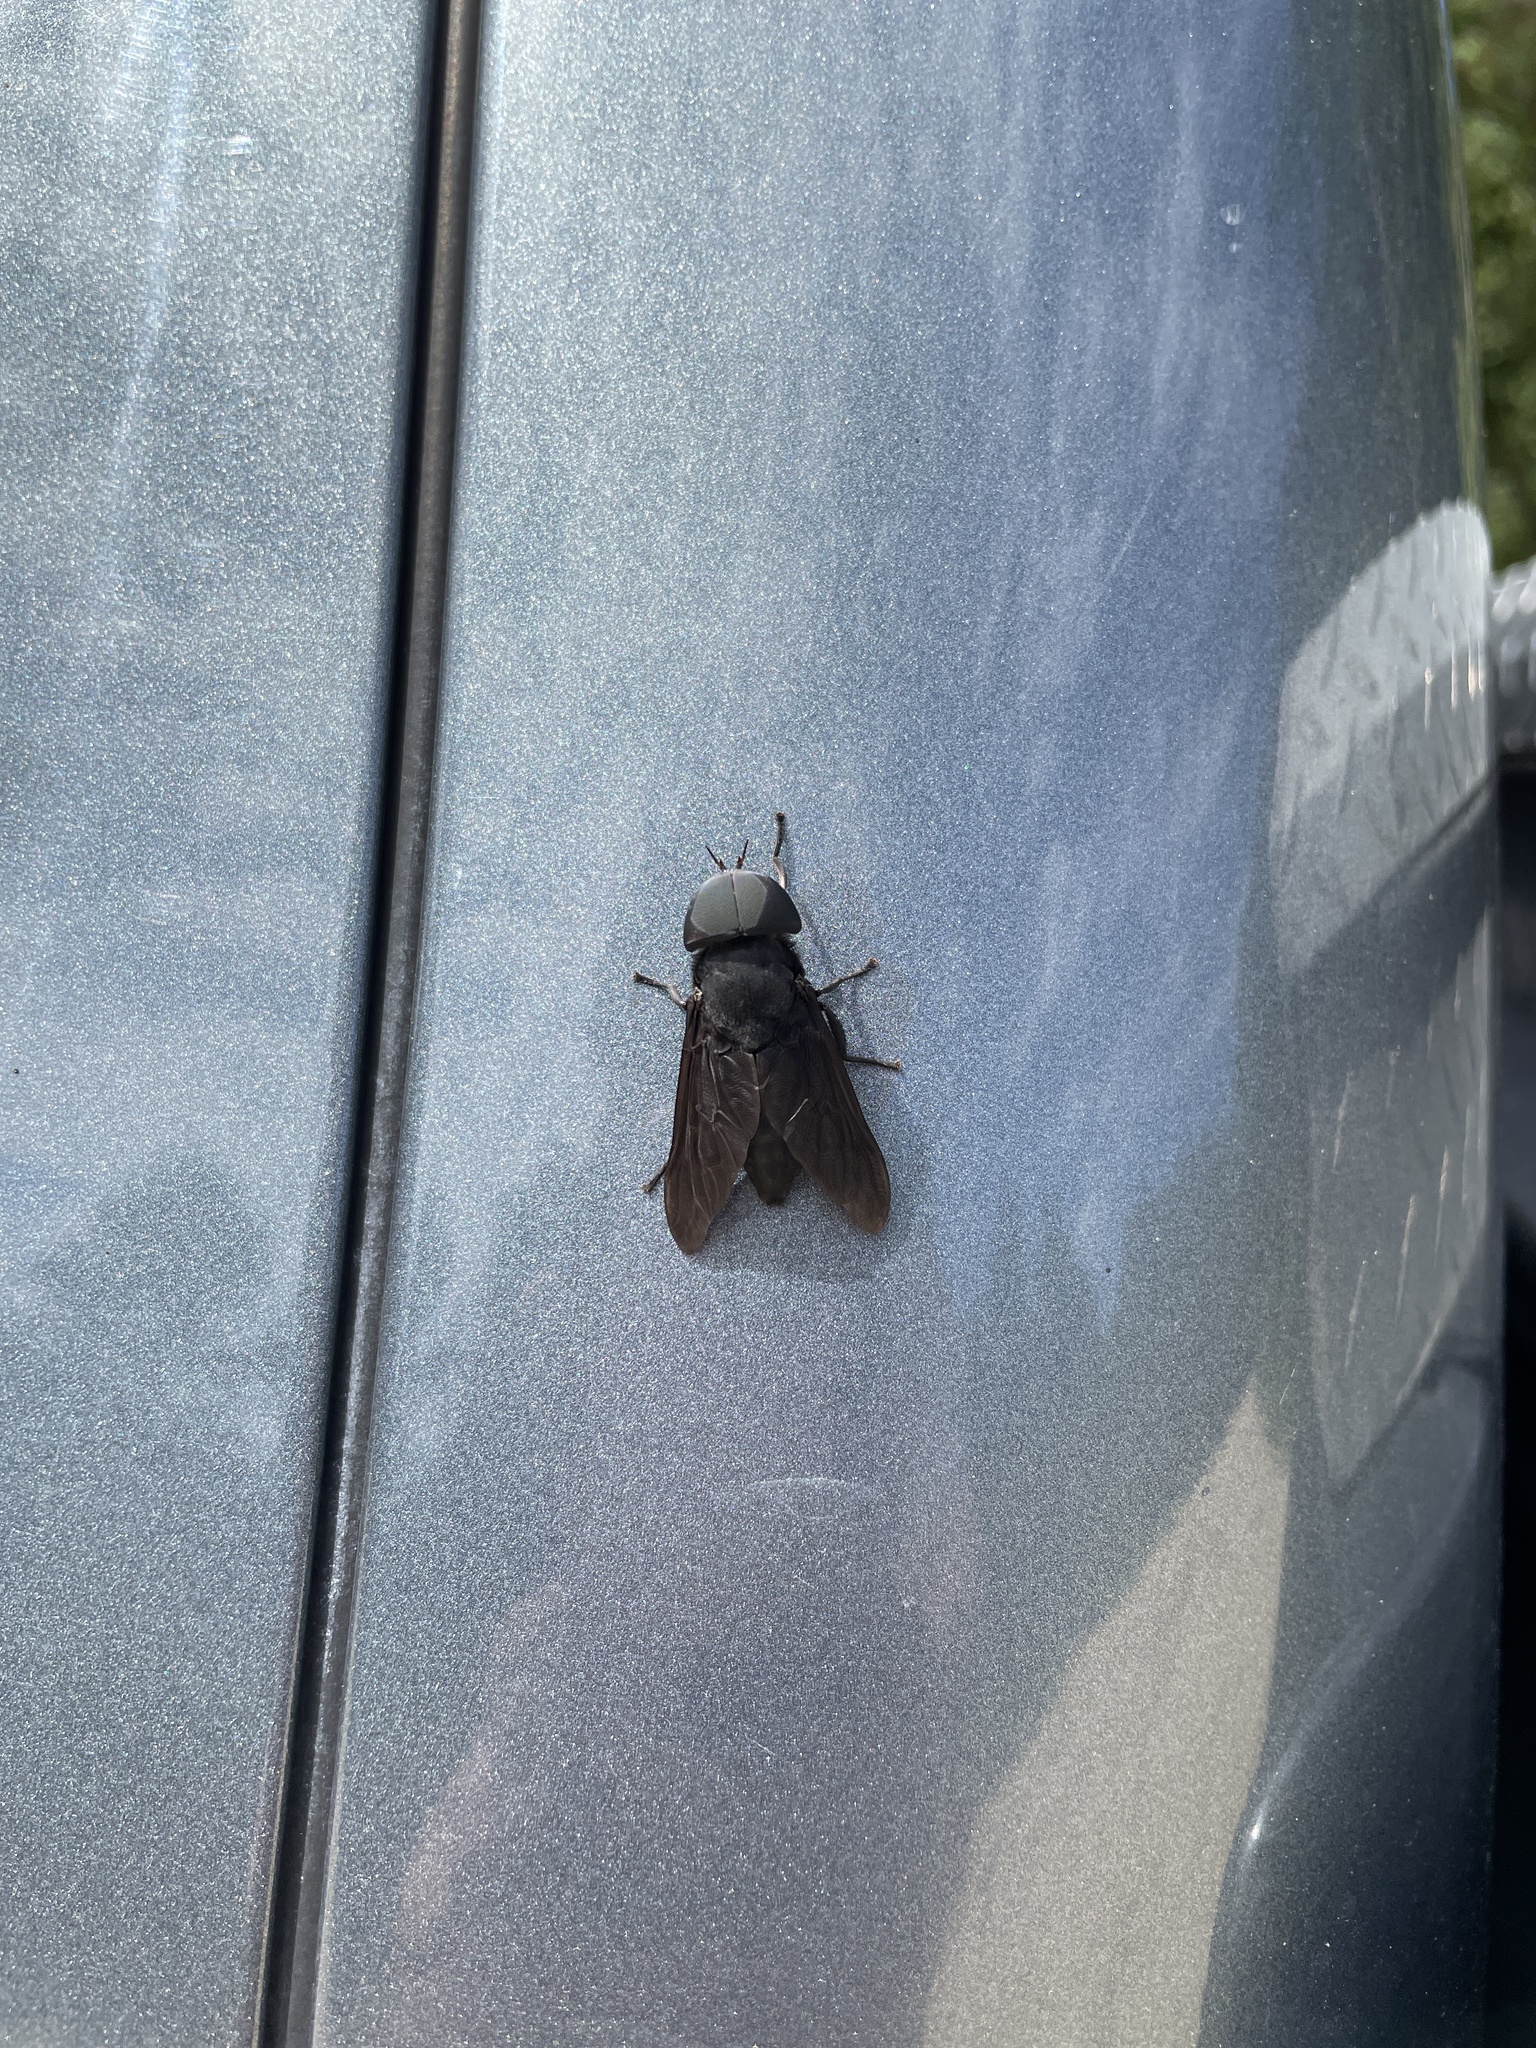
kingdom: Animalia
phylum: Arthropoda
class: Insecta
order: Diptera
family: Tabanidae
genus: Tabanus
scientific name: Tabanus atratus
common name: Black horse fly
